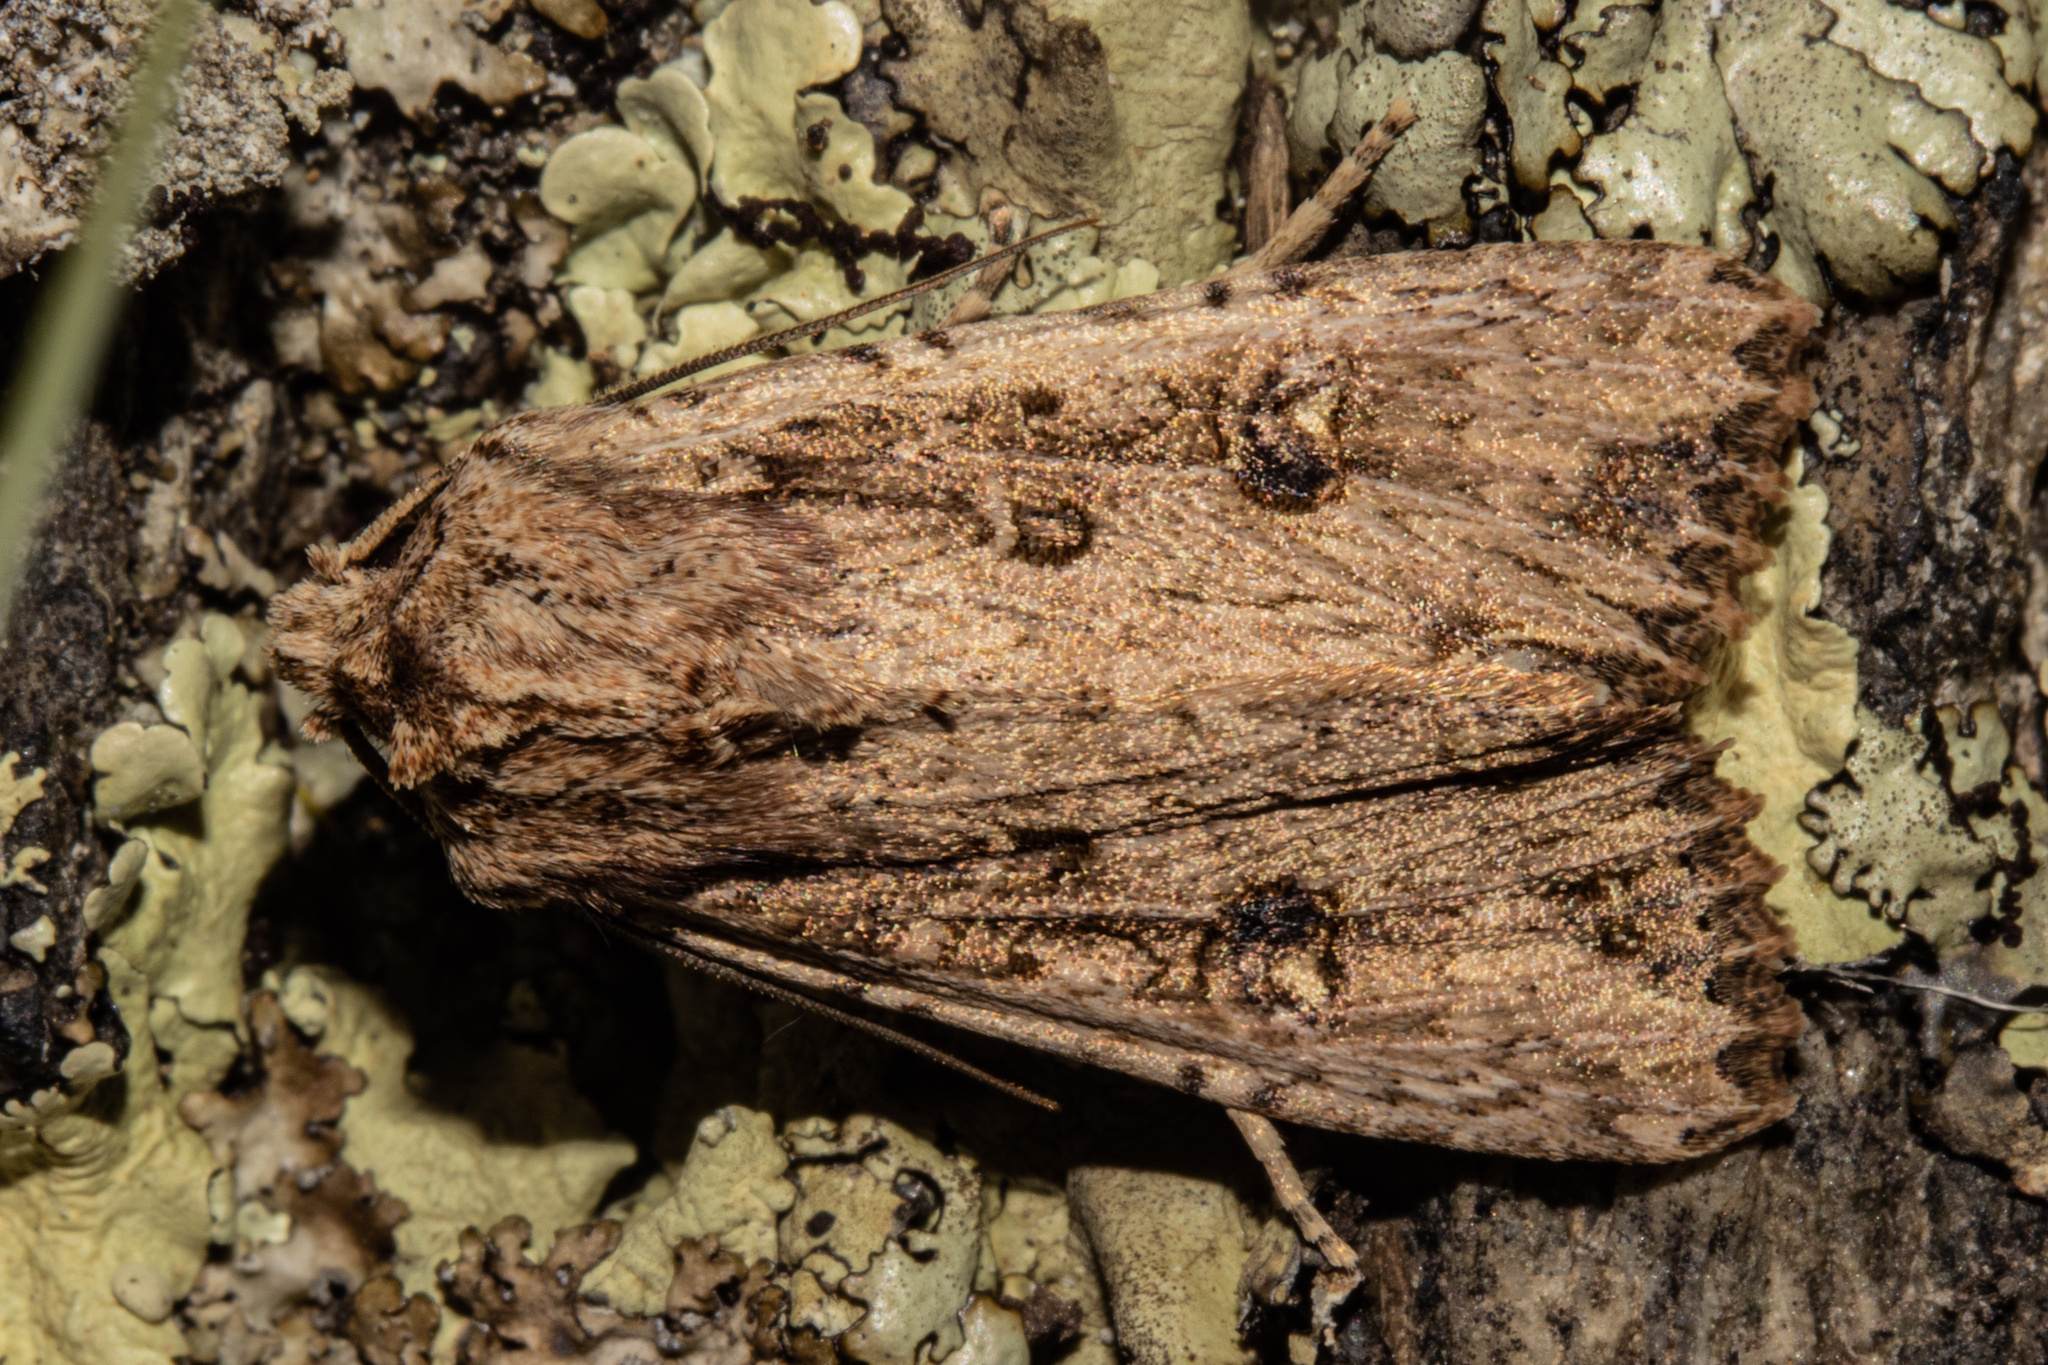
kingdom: Animalia
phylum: Arthropoda
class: Insecta
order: Lepidoptera
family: Noctuidae
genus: Ichneutica
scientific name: Ichneutica lignana
